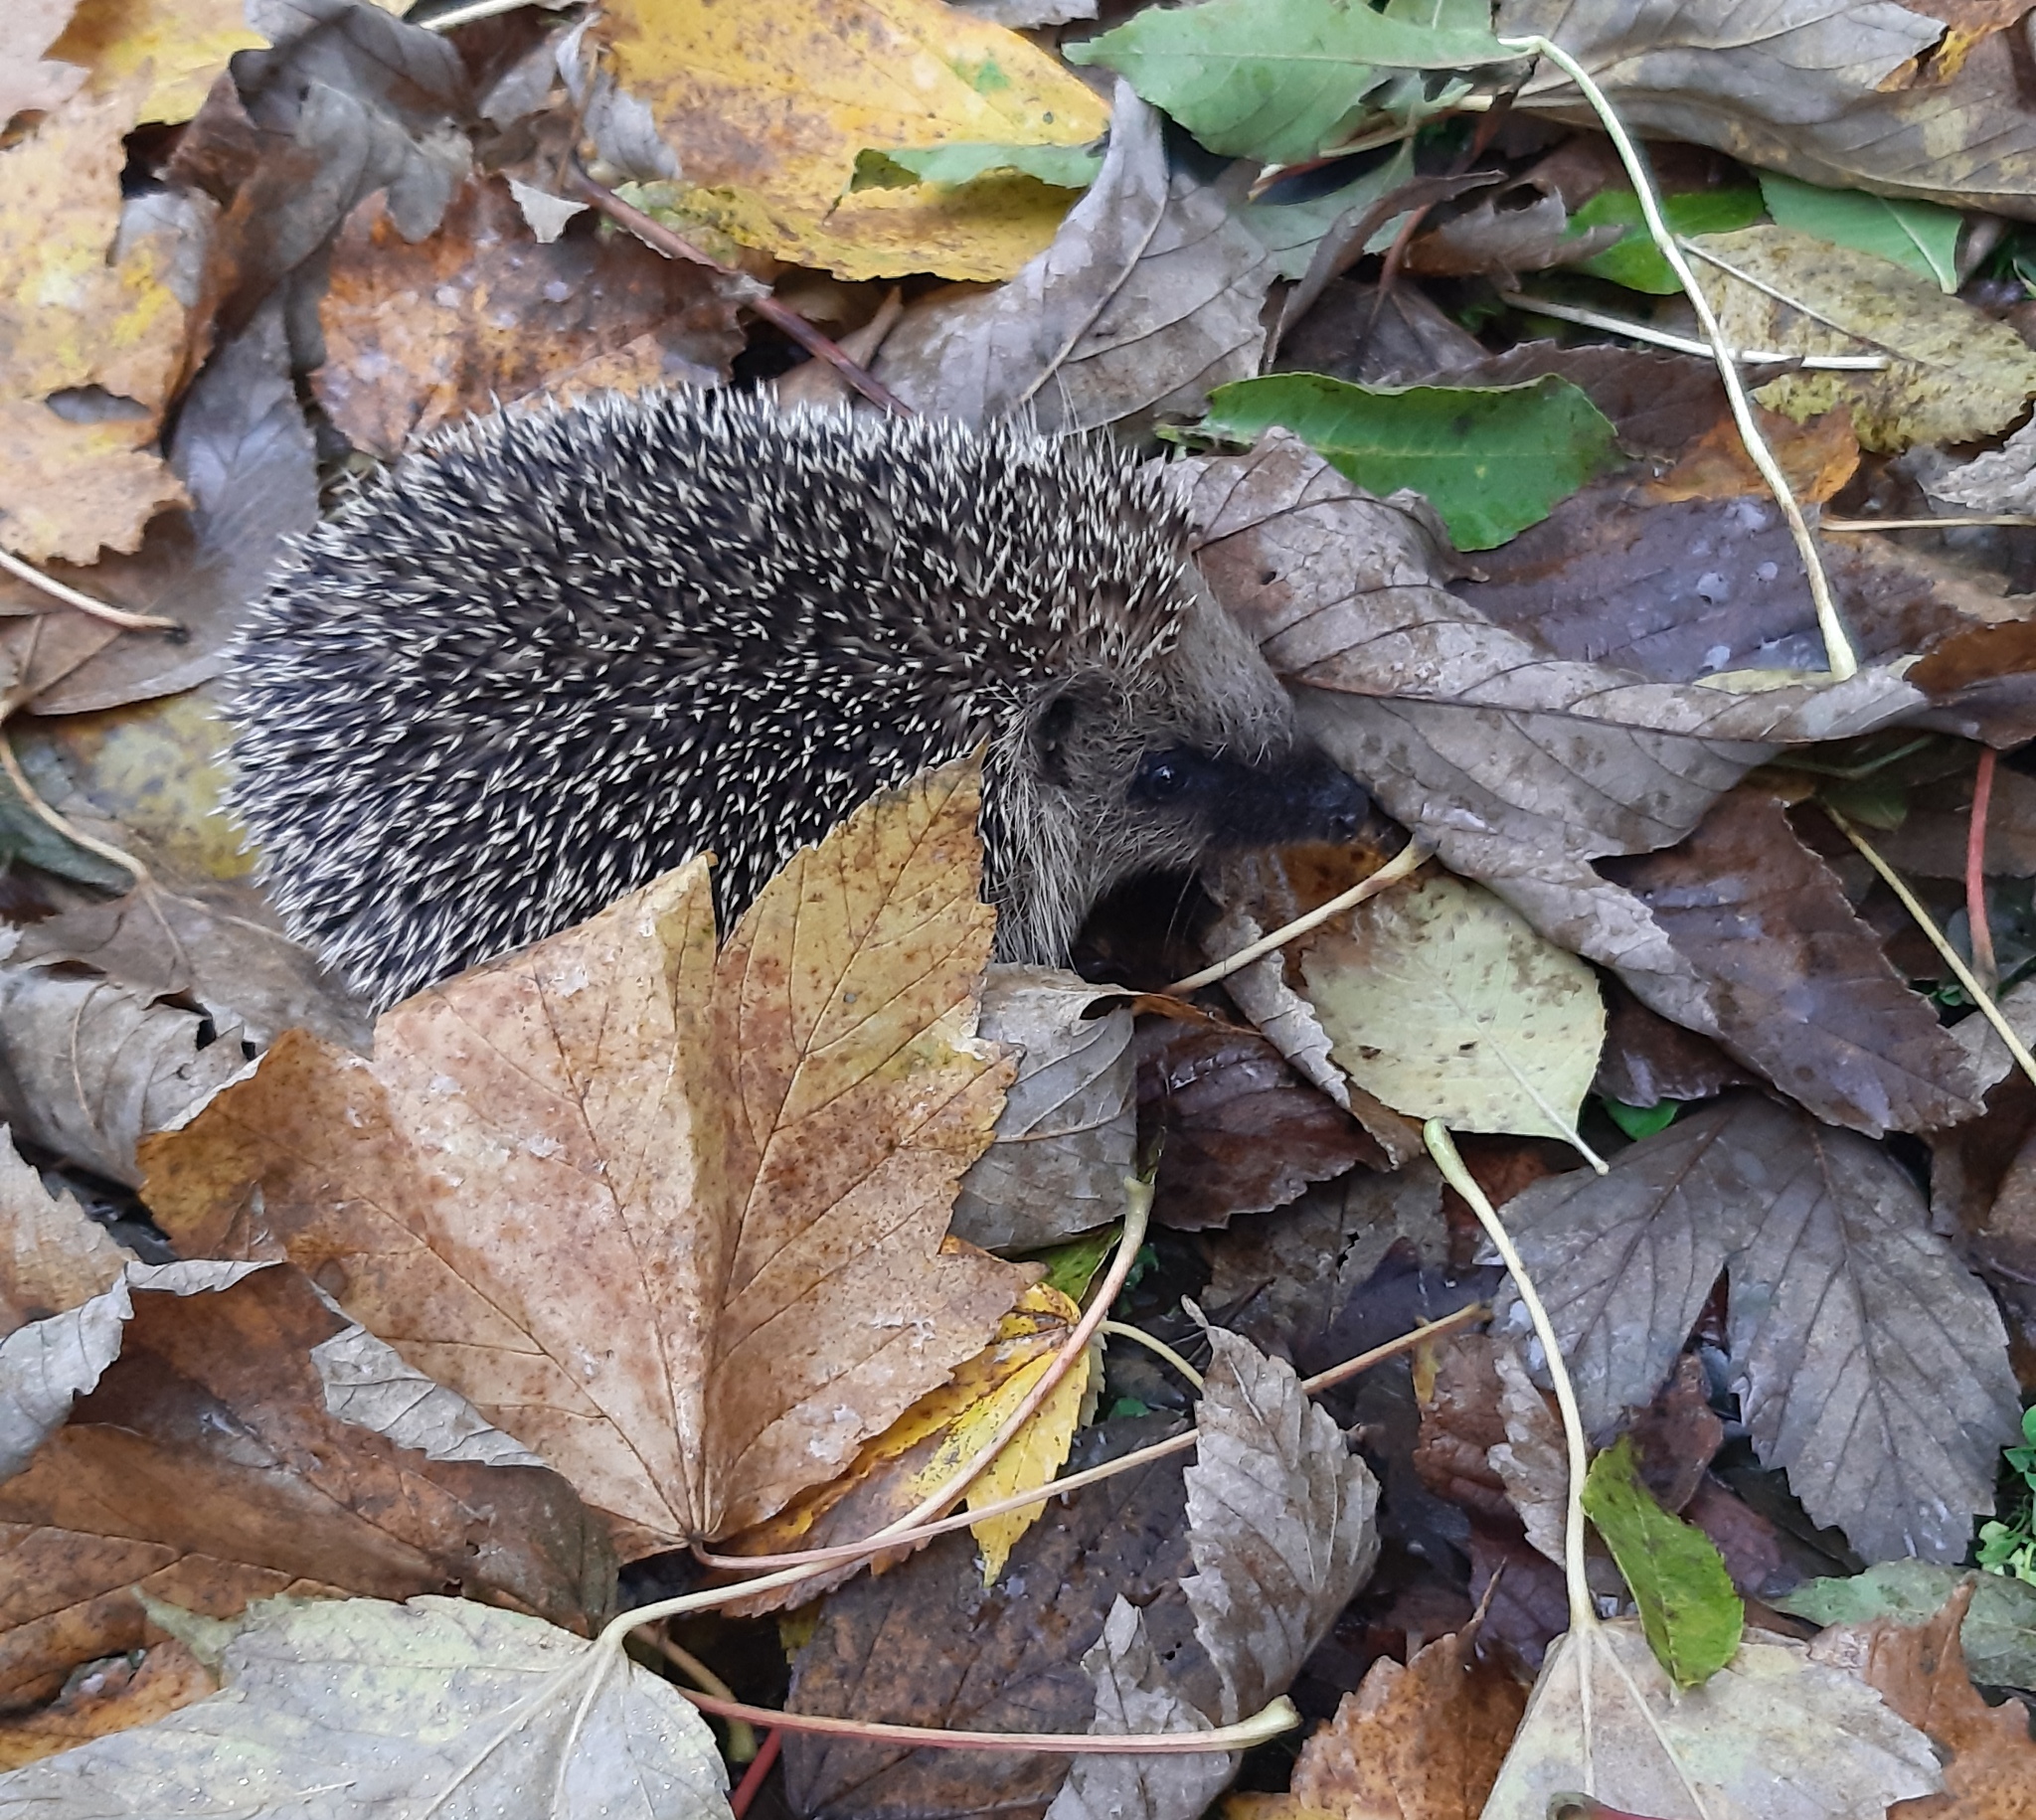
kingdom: Animalia
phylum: Chordata
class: Mammalia
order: Erinaceomorpha
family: Erinaceidae
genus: Erinaceus
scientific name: Erinaceus europaeus
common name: West european hedgehog
